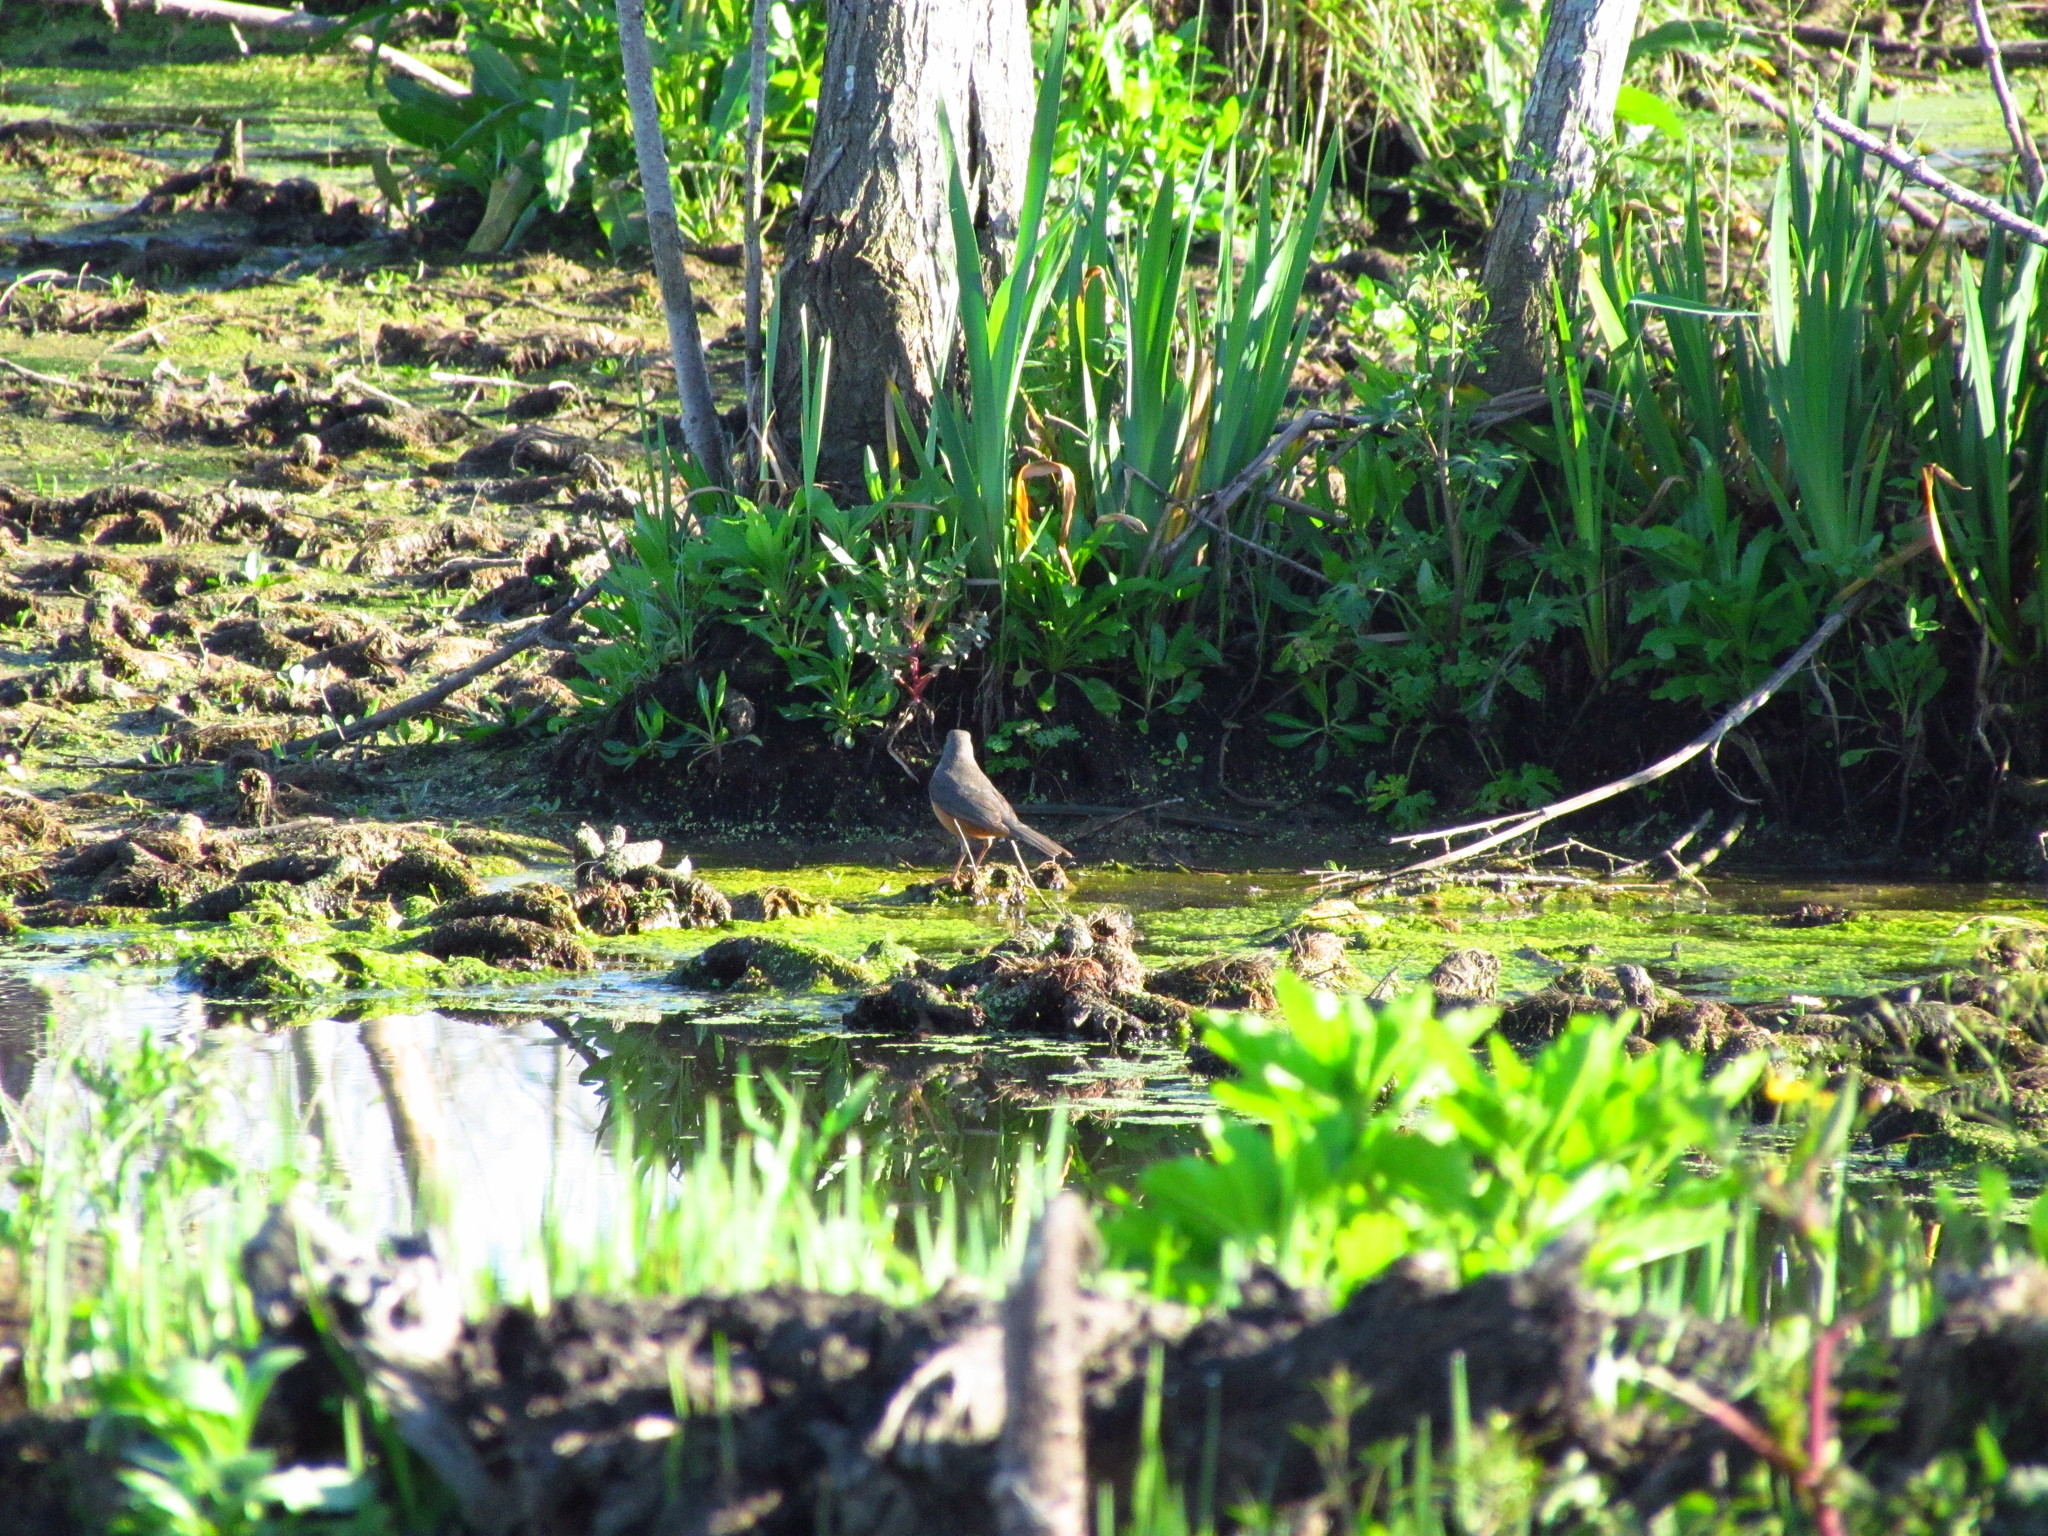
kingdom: Animalia
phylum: Chordata
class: Aves
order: Passeriformes
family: Turdidae
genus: Turdus
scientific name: Turdus rufiventris
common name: Rufous-bellied thrush
